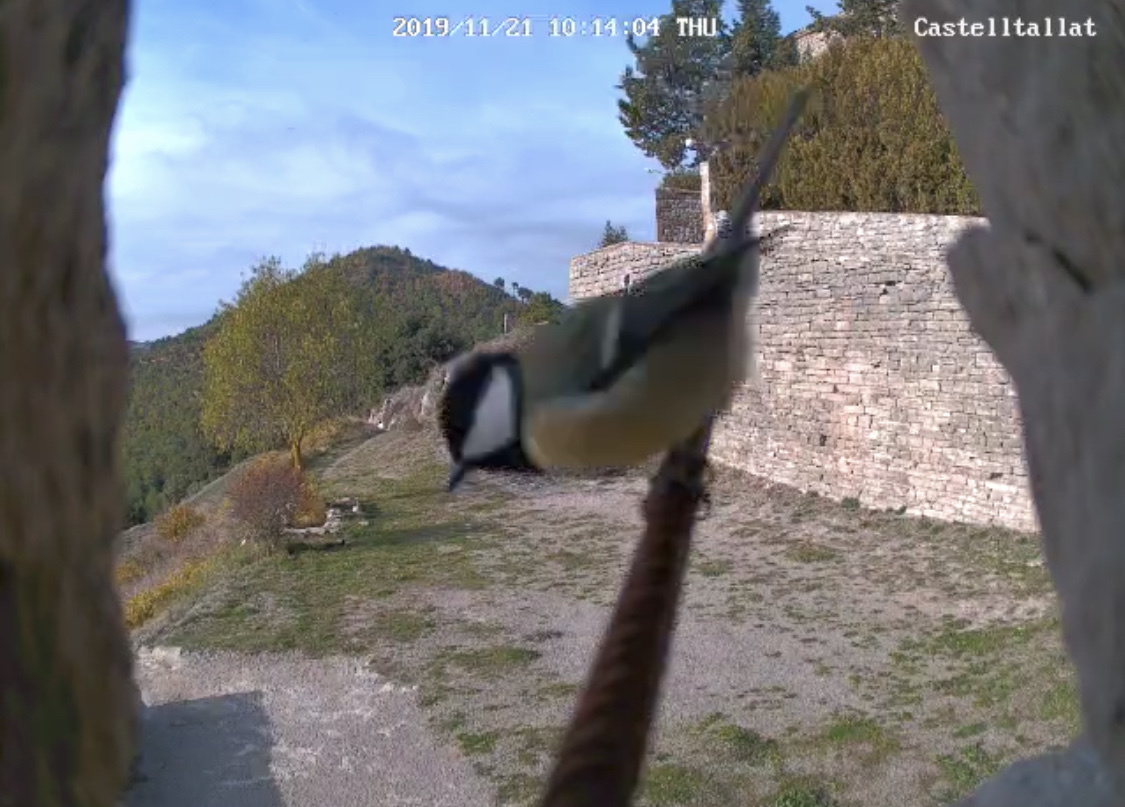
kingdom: Animalia
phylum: Chordata
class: Aves
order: Passeriformes
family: Paridae
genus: Parus
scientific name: Parus major
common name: Great tit
